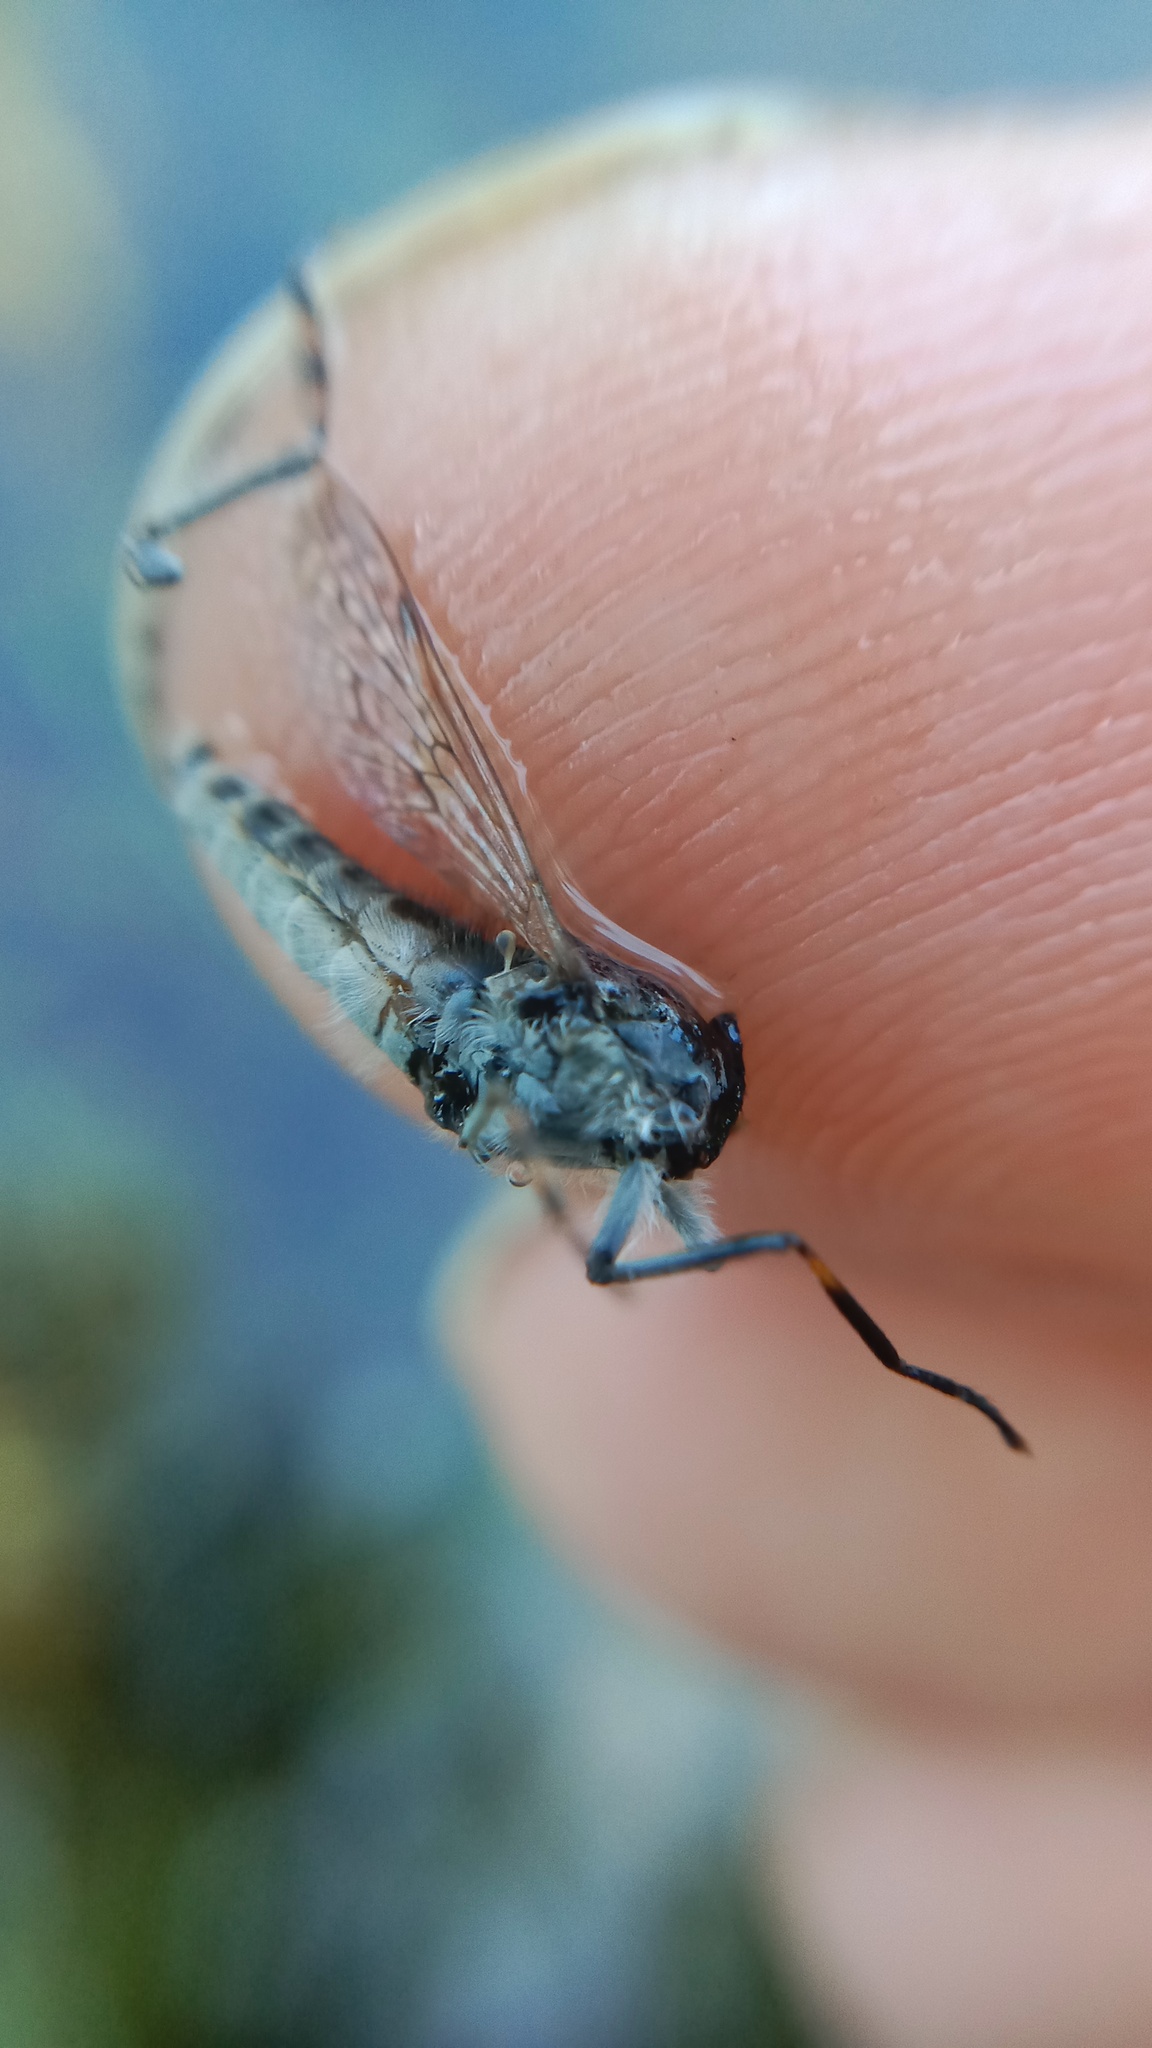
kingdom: Animalia
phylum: Arthropoda
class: Insecta
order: Diptera
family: Tabanidae
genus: Haematopota
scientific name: Haematopota pluvialis
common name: Common horse fly
